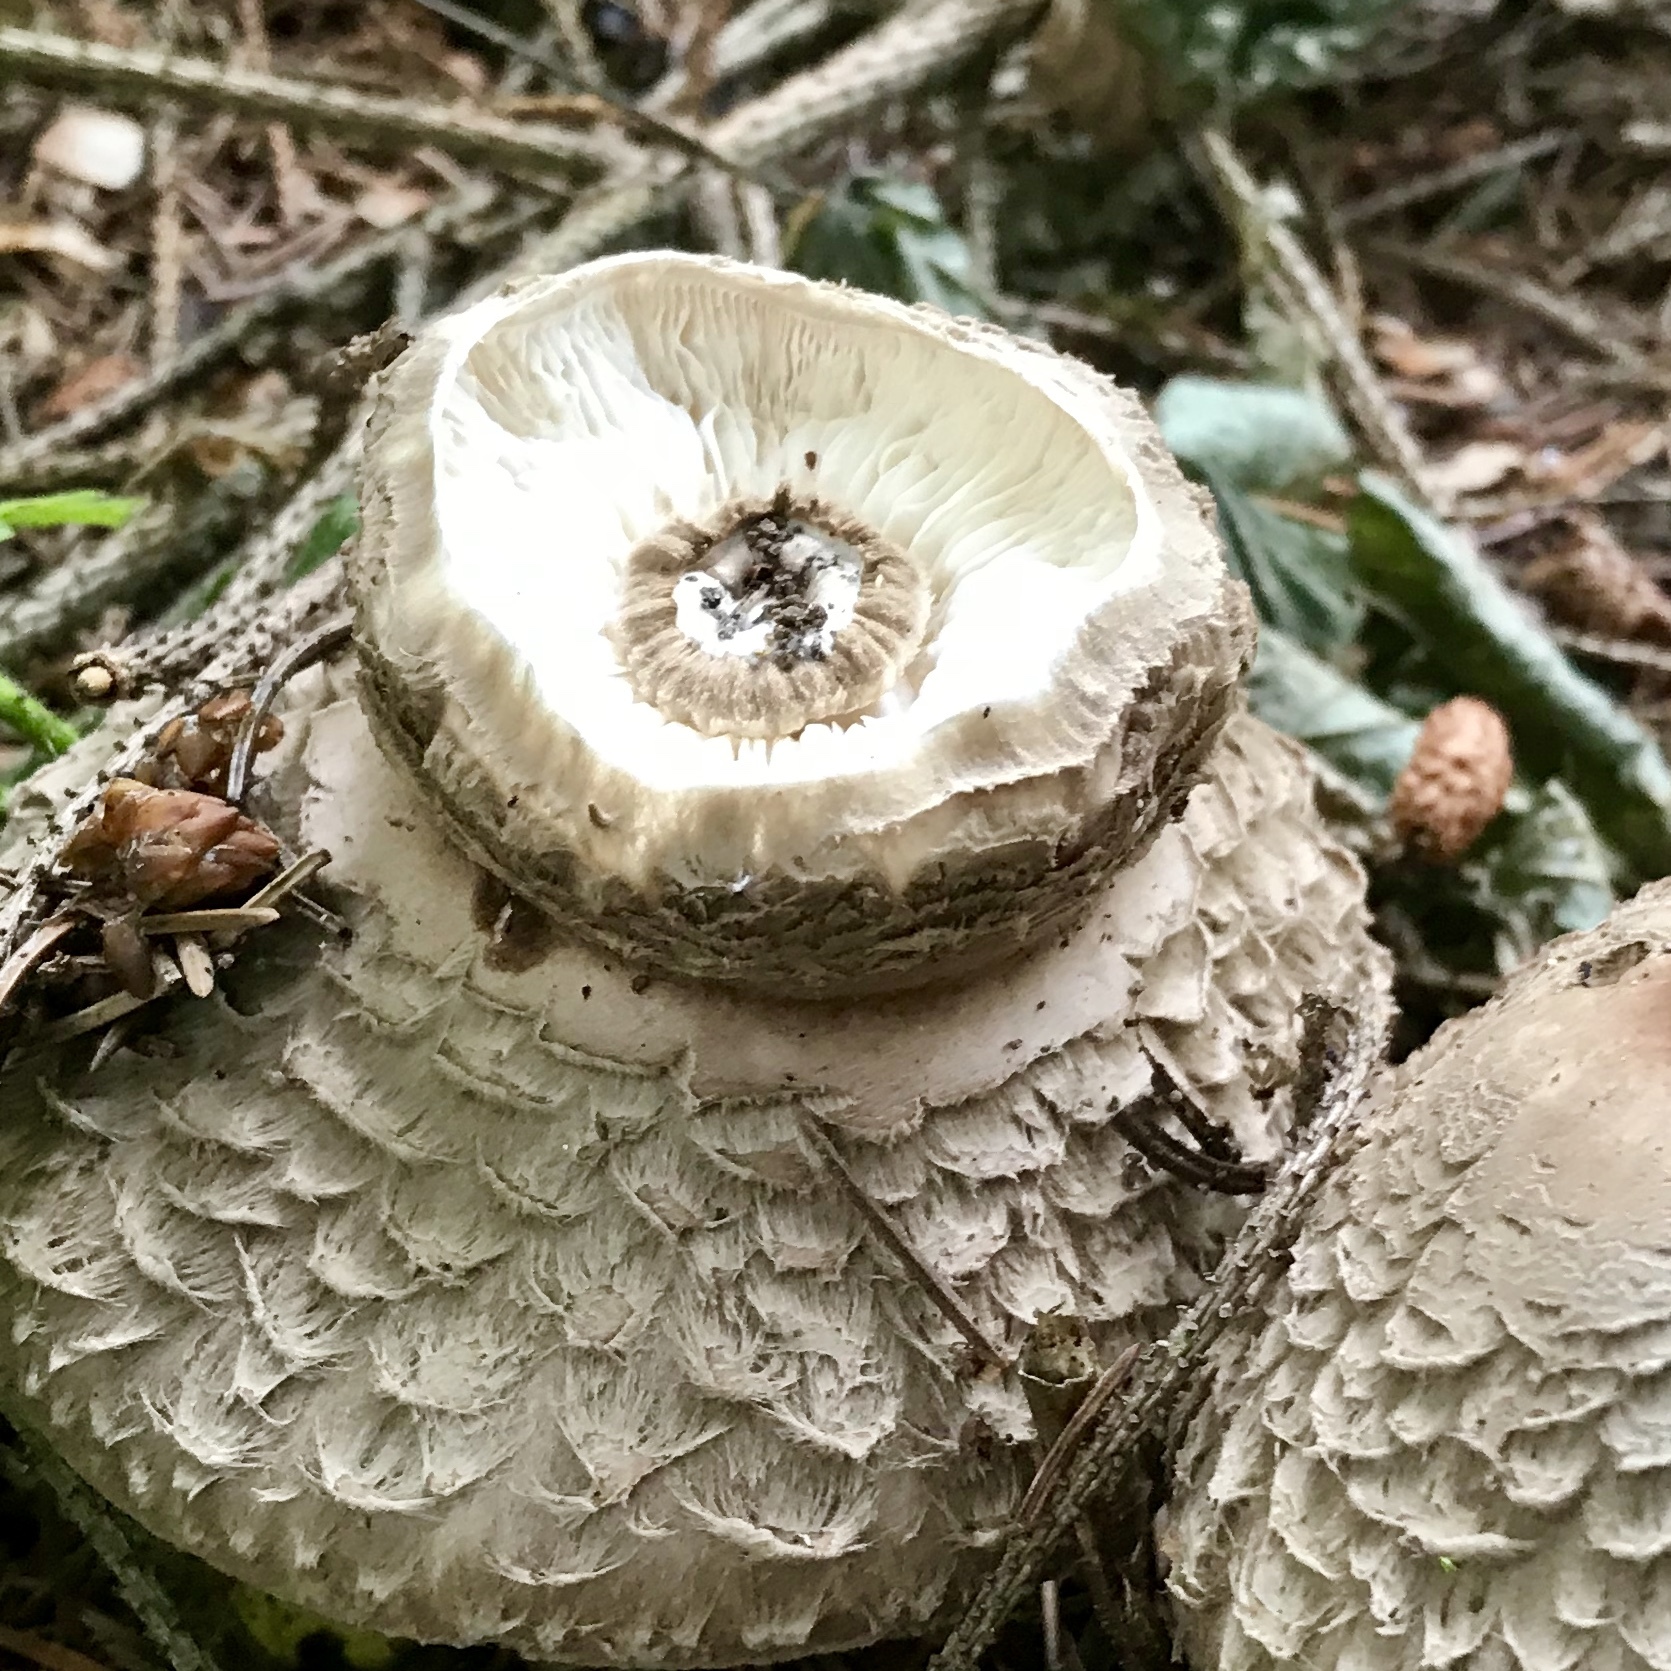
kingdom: Fungi
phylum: Basidiomycota
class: Agaricomycetes
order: Agaricales
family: Agaricaceae
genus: Chlorophyllum
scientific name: Chlorophyllum olivieri
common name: Conifer parasol
